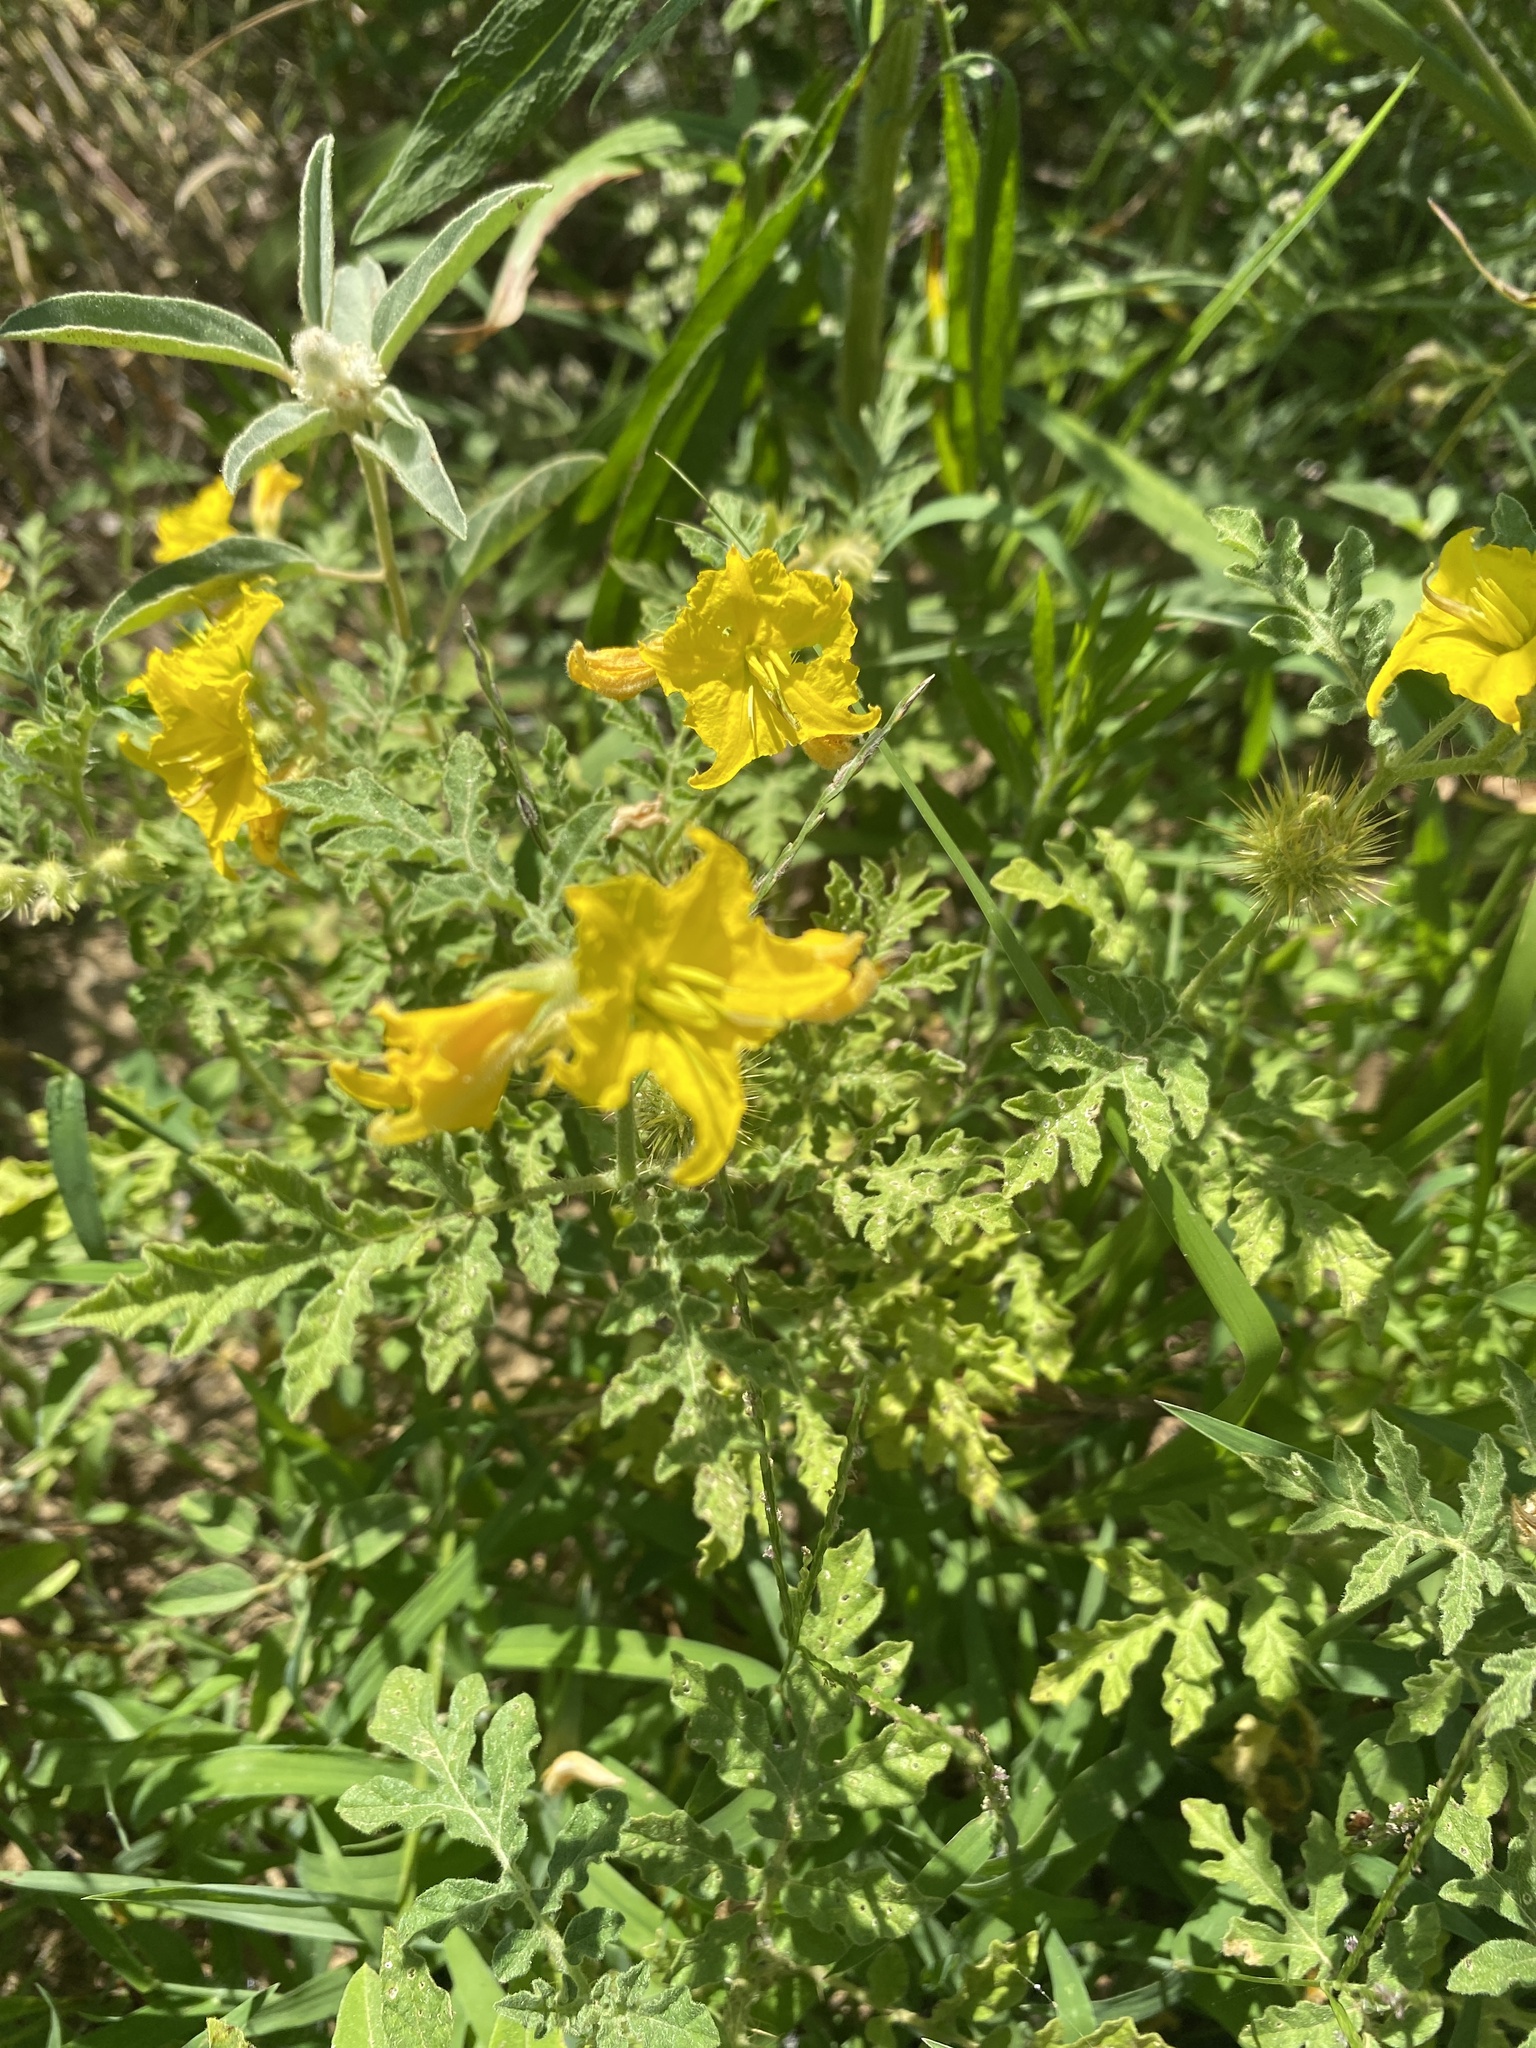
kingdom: Plantae
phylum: Tracheophyta
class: Magnoliopsida
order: Solanales
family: Solanaceae
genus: Solanum
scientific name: Solanum angustifolium
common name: Buffalobur nightshade
